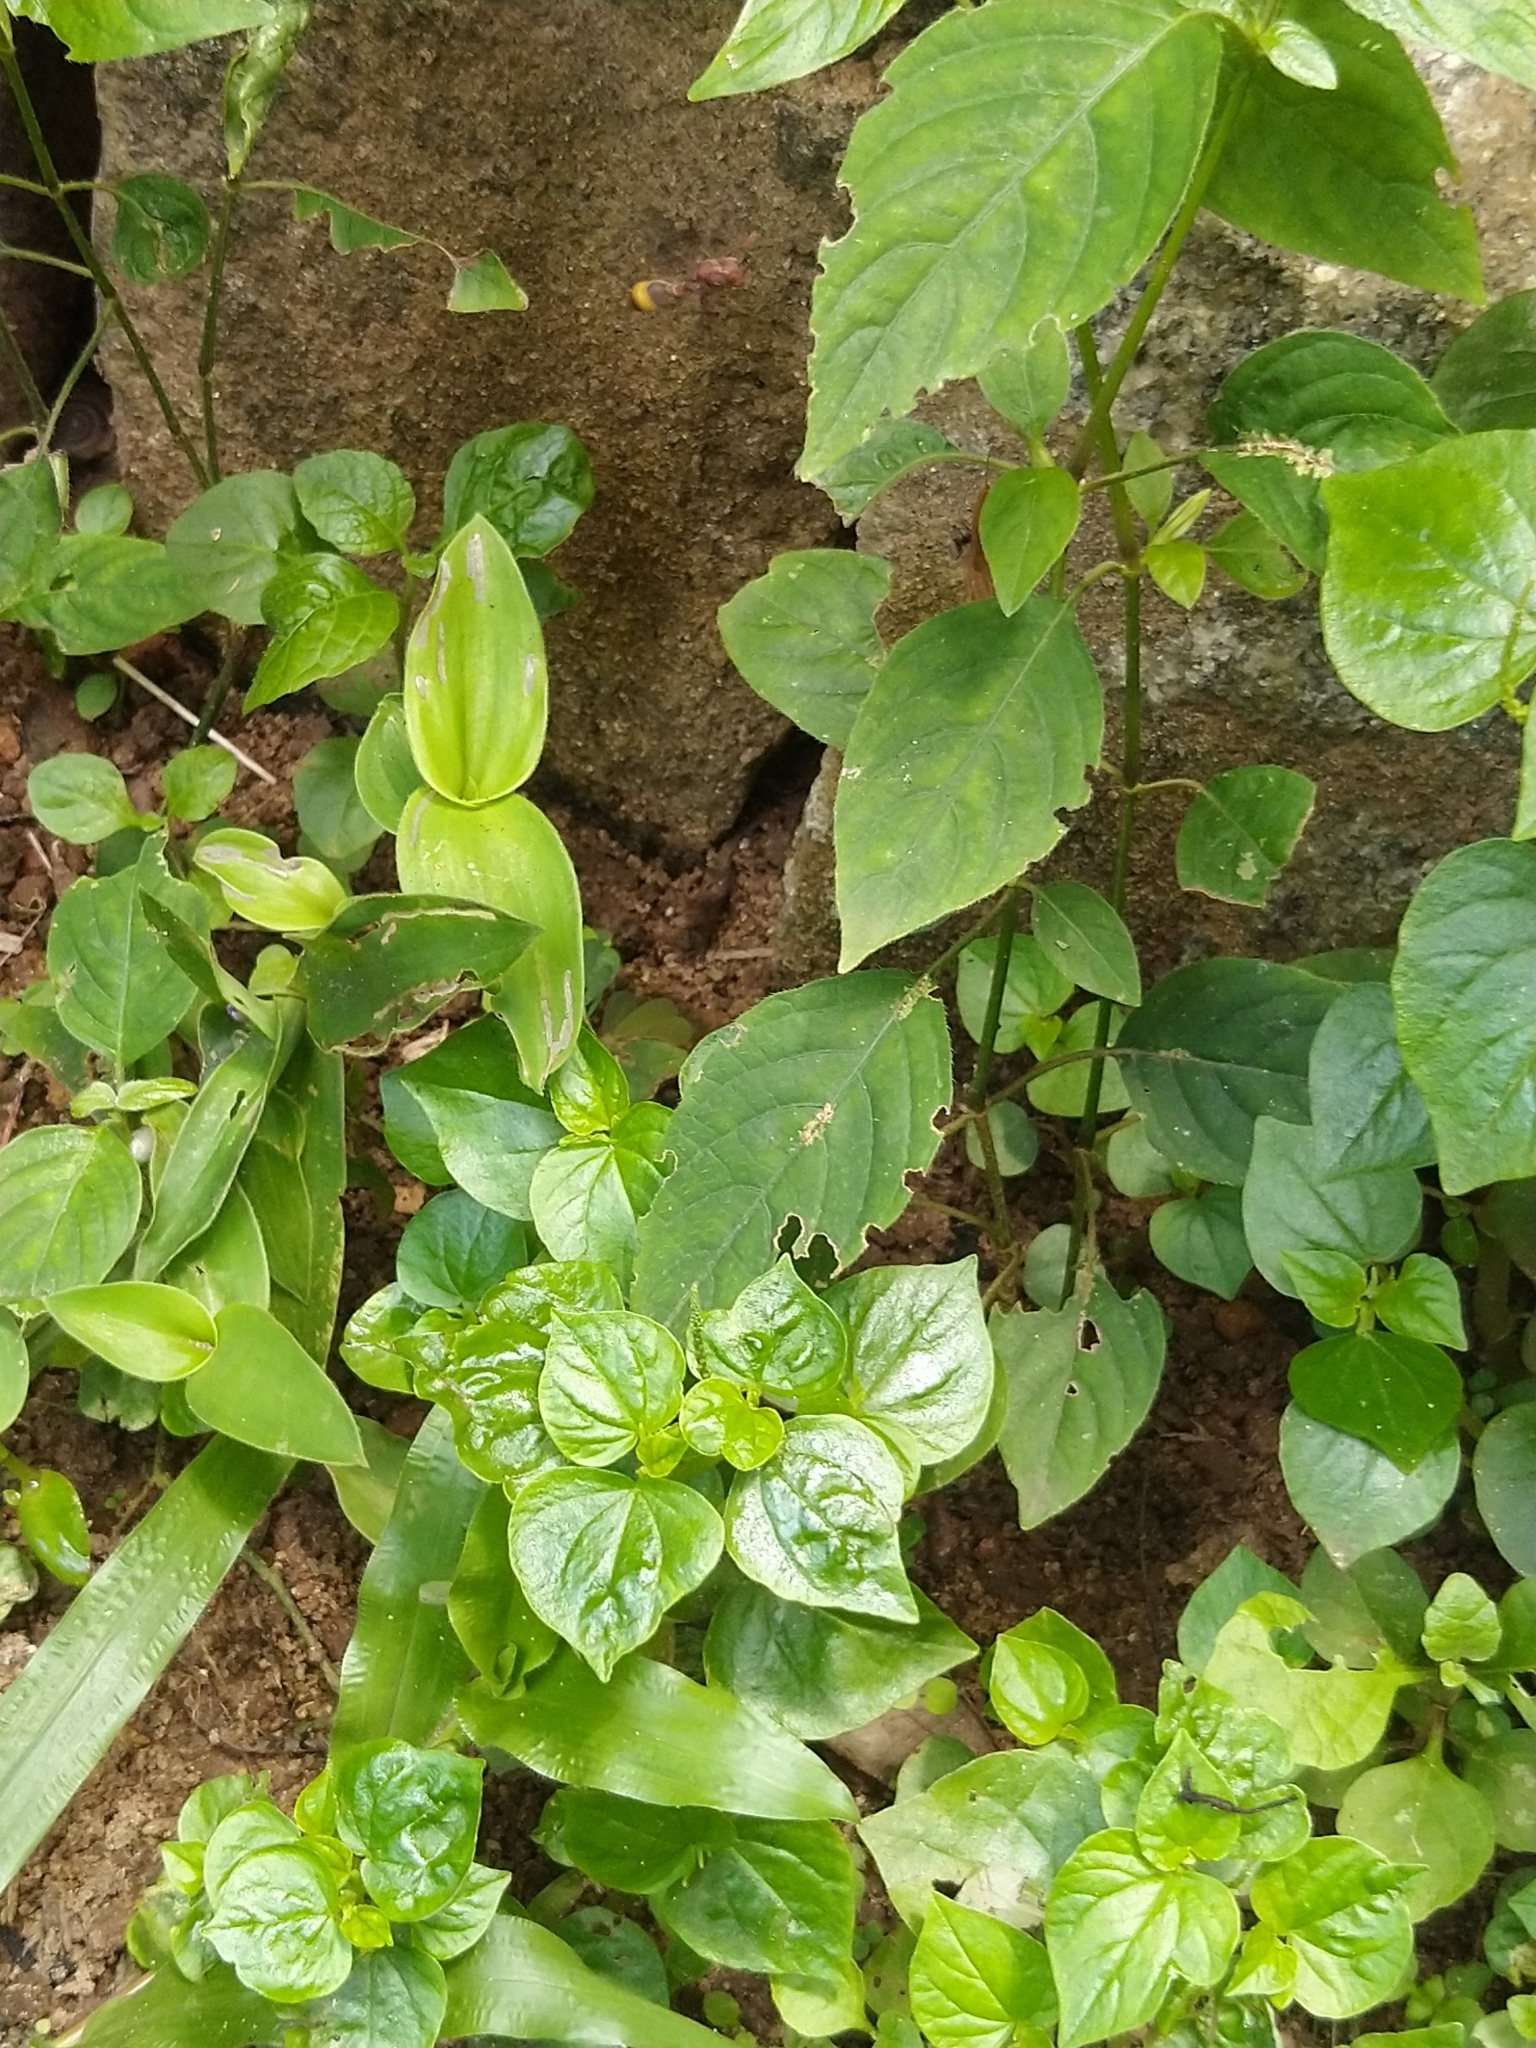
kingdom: Plantae
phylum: Tracheophyta
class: Magnoliopsida
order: Piperales
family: Piperaceae
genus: Peperomia
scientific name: Peperomia pellucida
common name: Man to man
